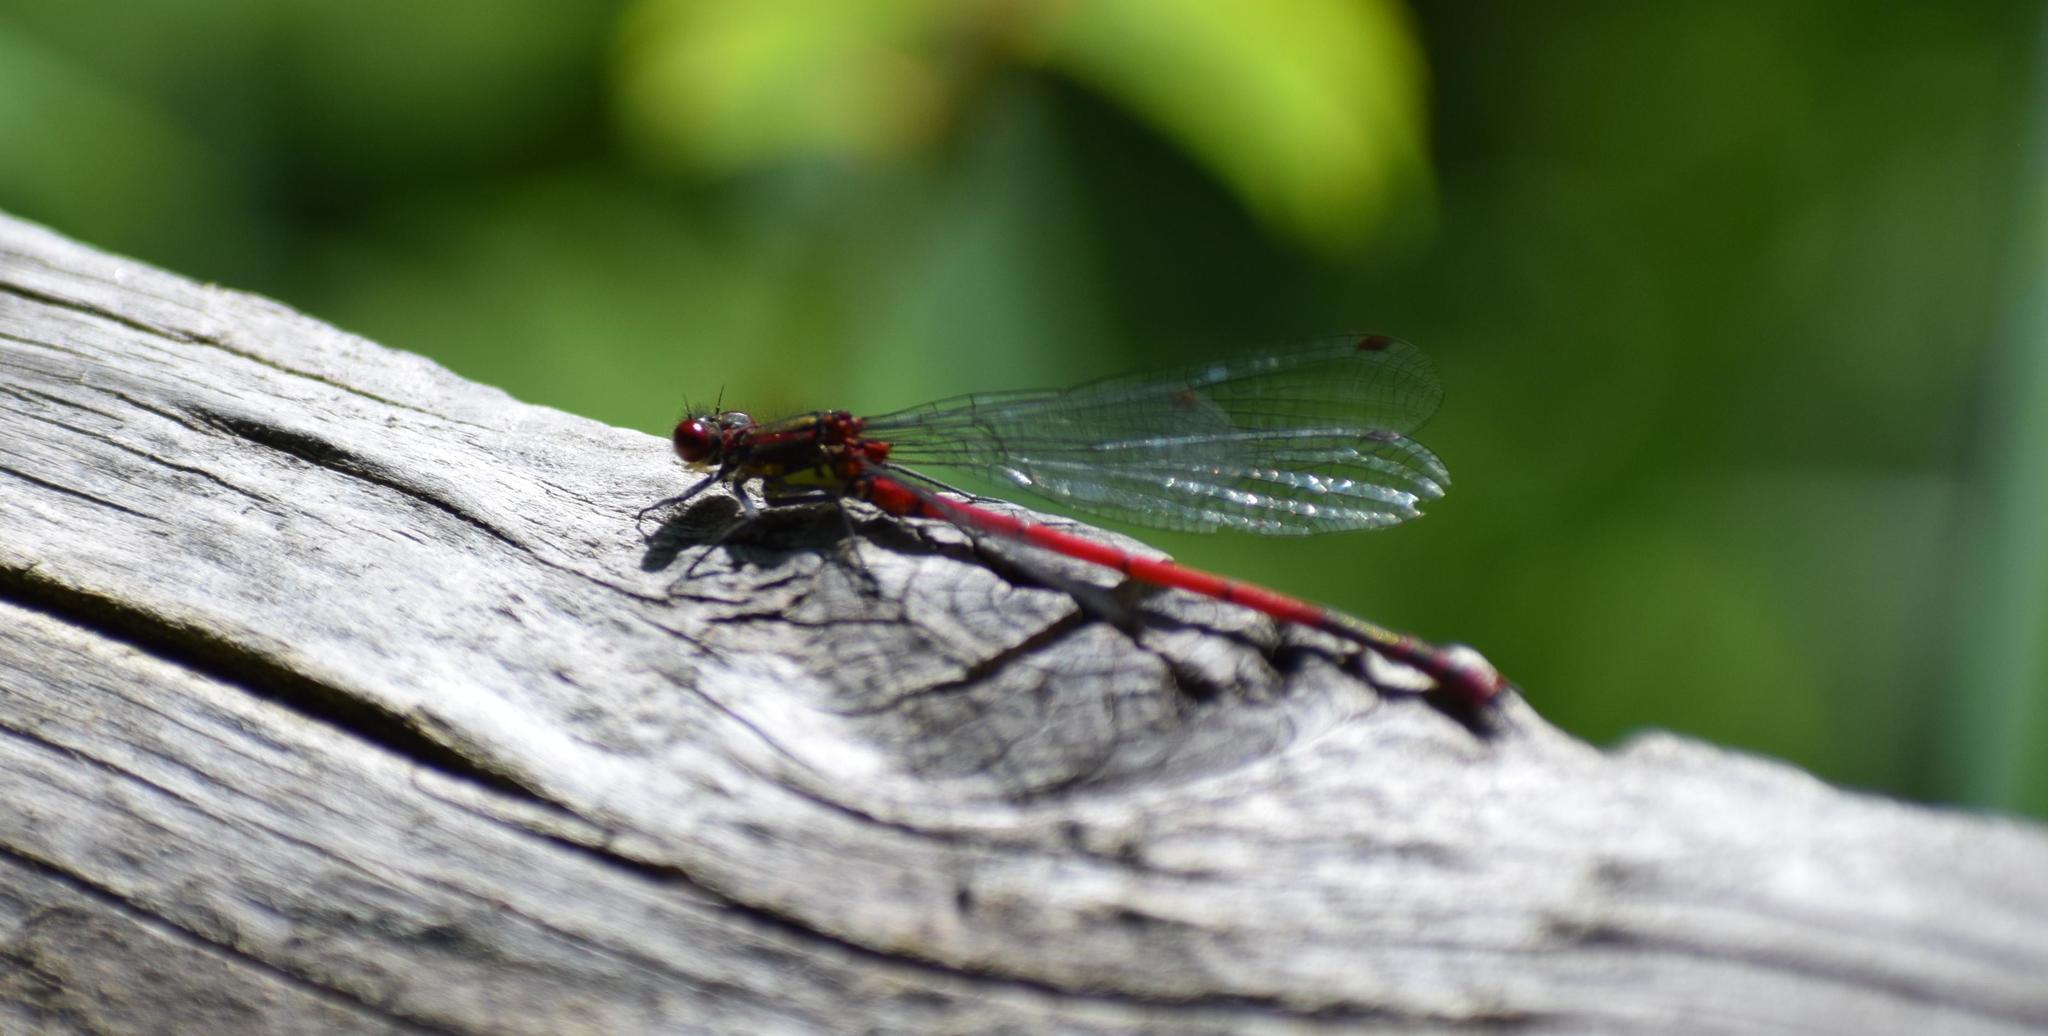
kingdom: Animalia
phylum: Arthropoda
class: Insecta
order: Odonata
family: Coenagrionidae
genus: Pyrrhosoma
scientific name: Pyrrhosoma nymphula
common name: Large red damsel
